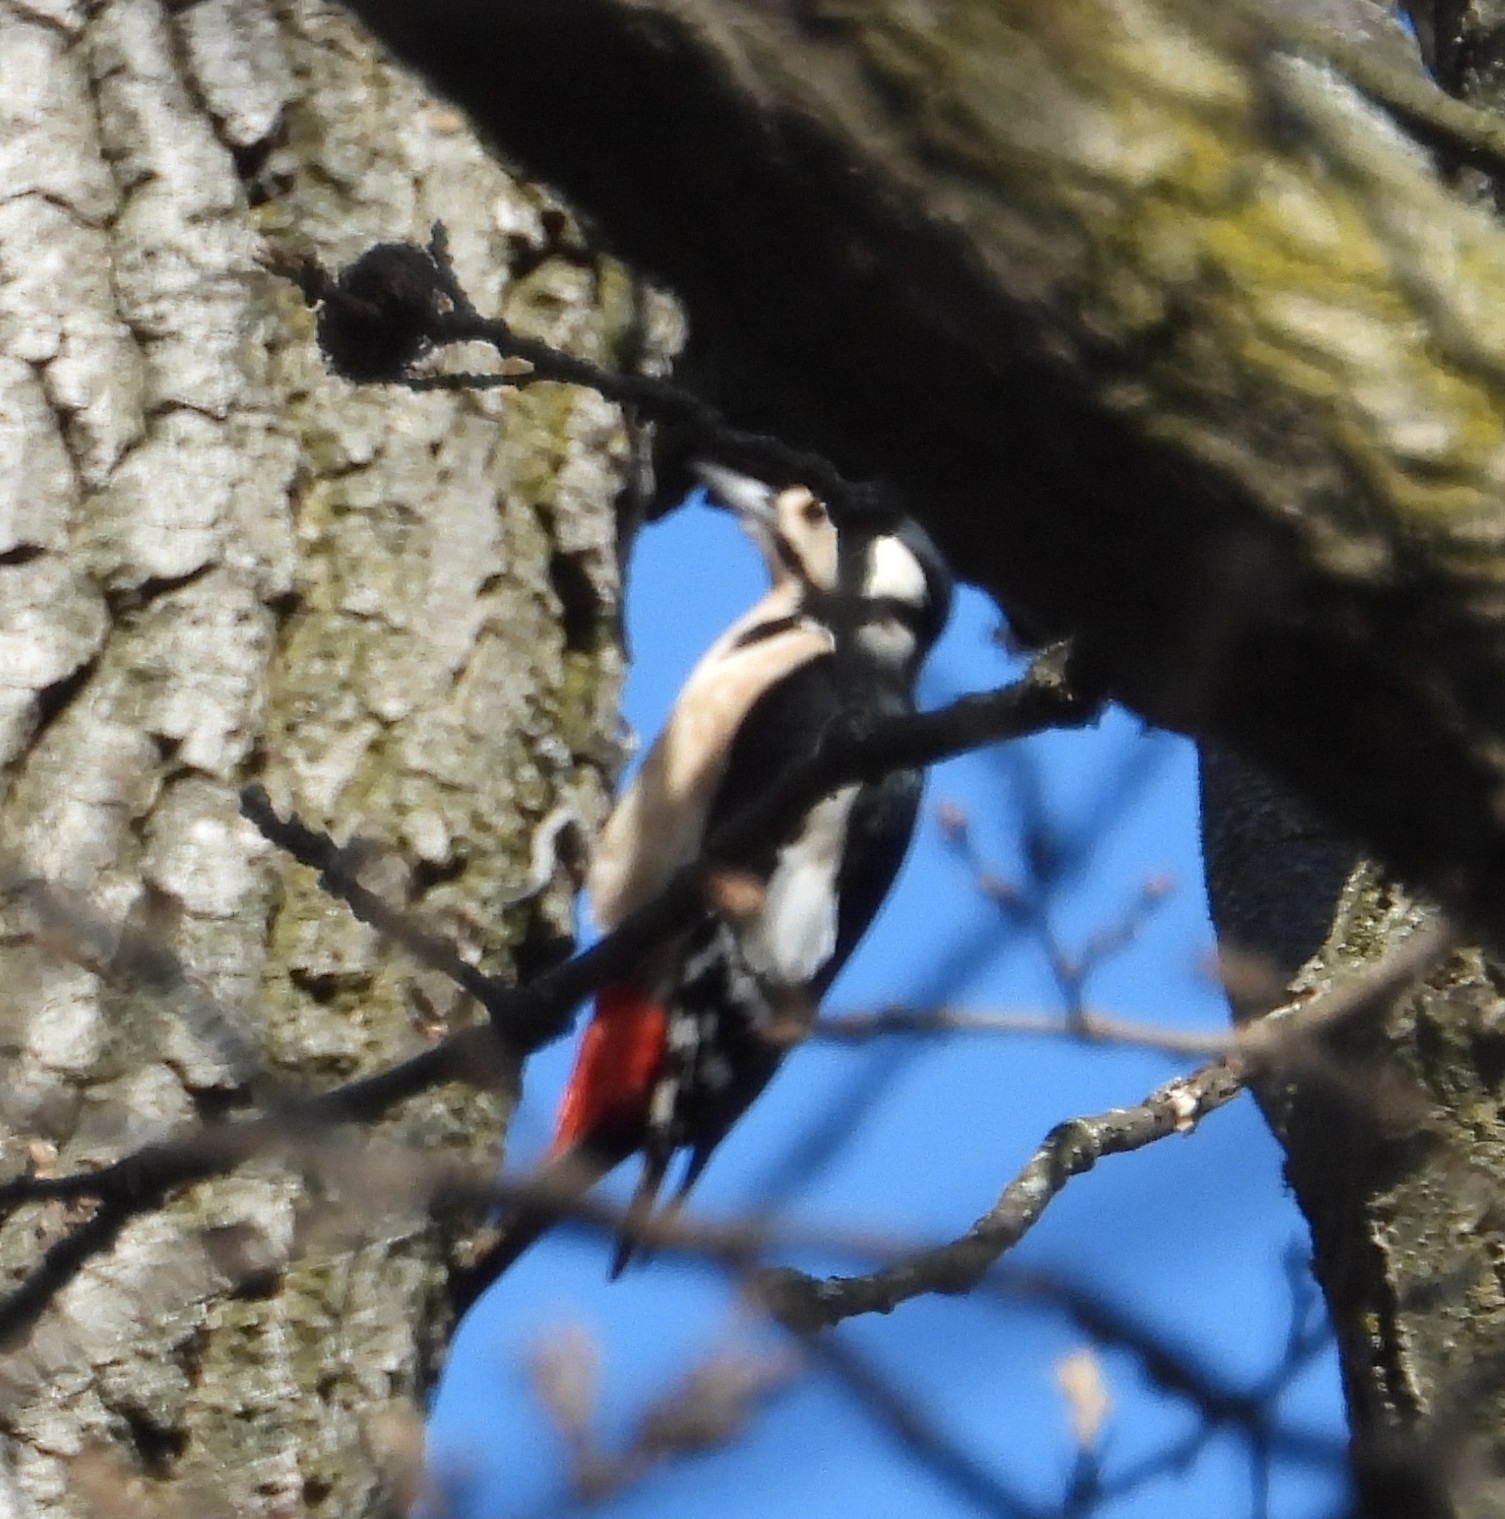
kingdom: Animalia
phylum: Chordata
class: Aves
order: Piciformes
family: Picidae
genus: Dendrocopos
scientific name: Dendrocopos major
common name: Great spotted woodpecker
